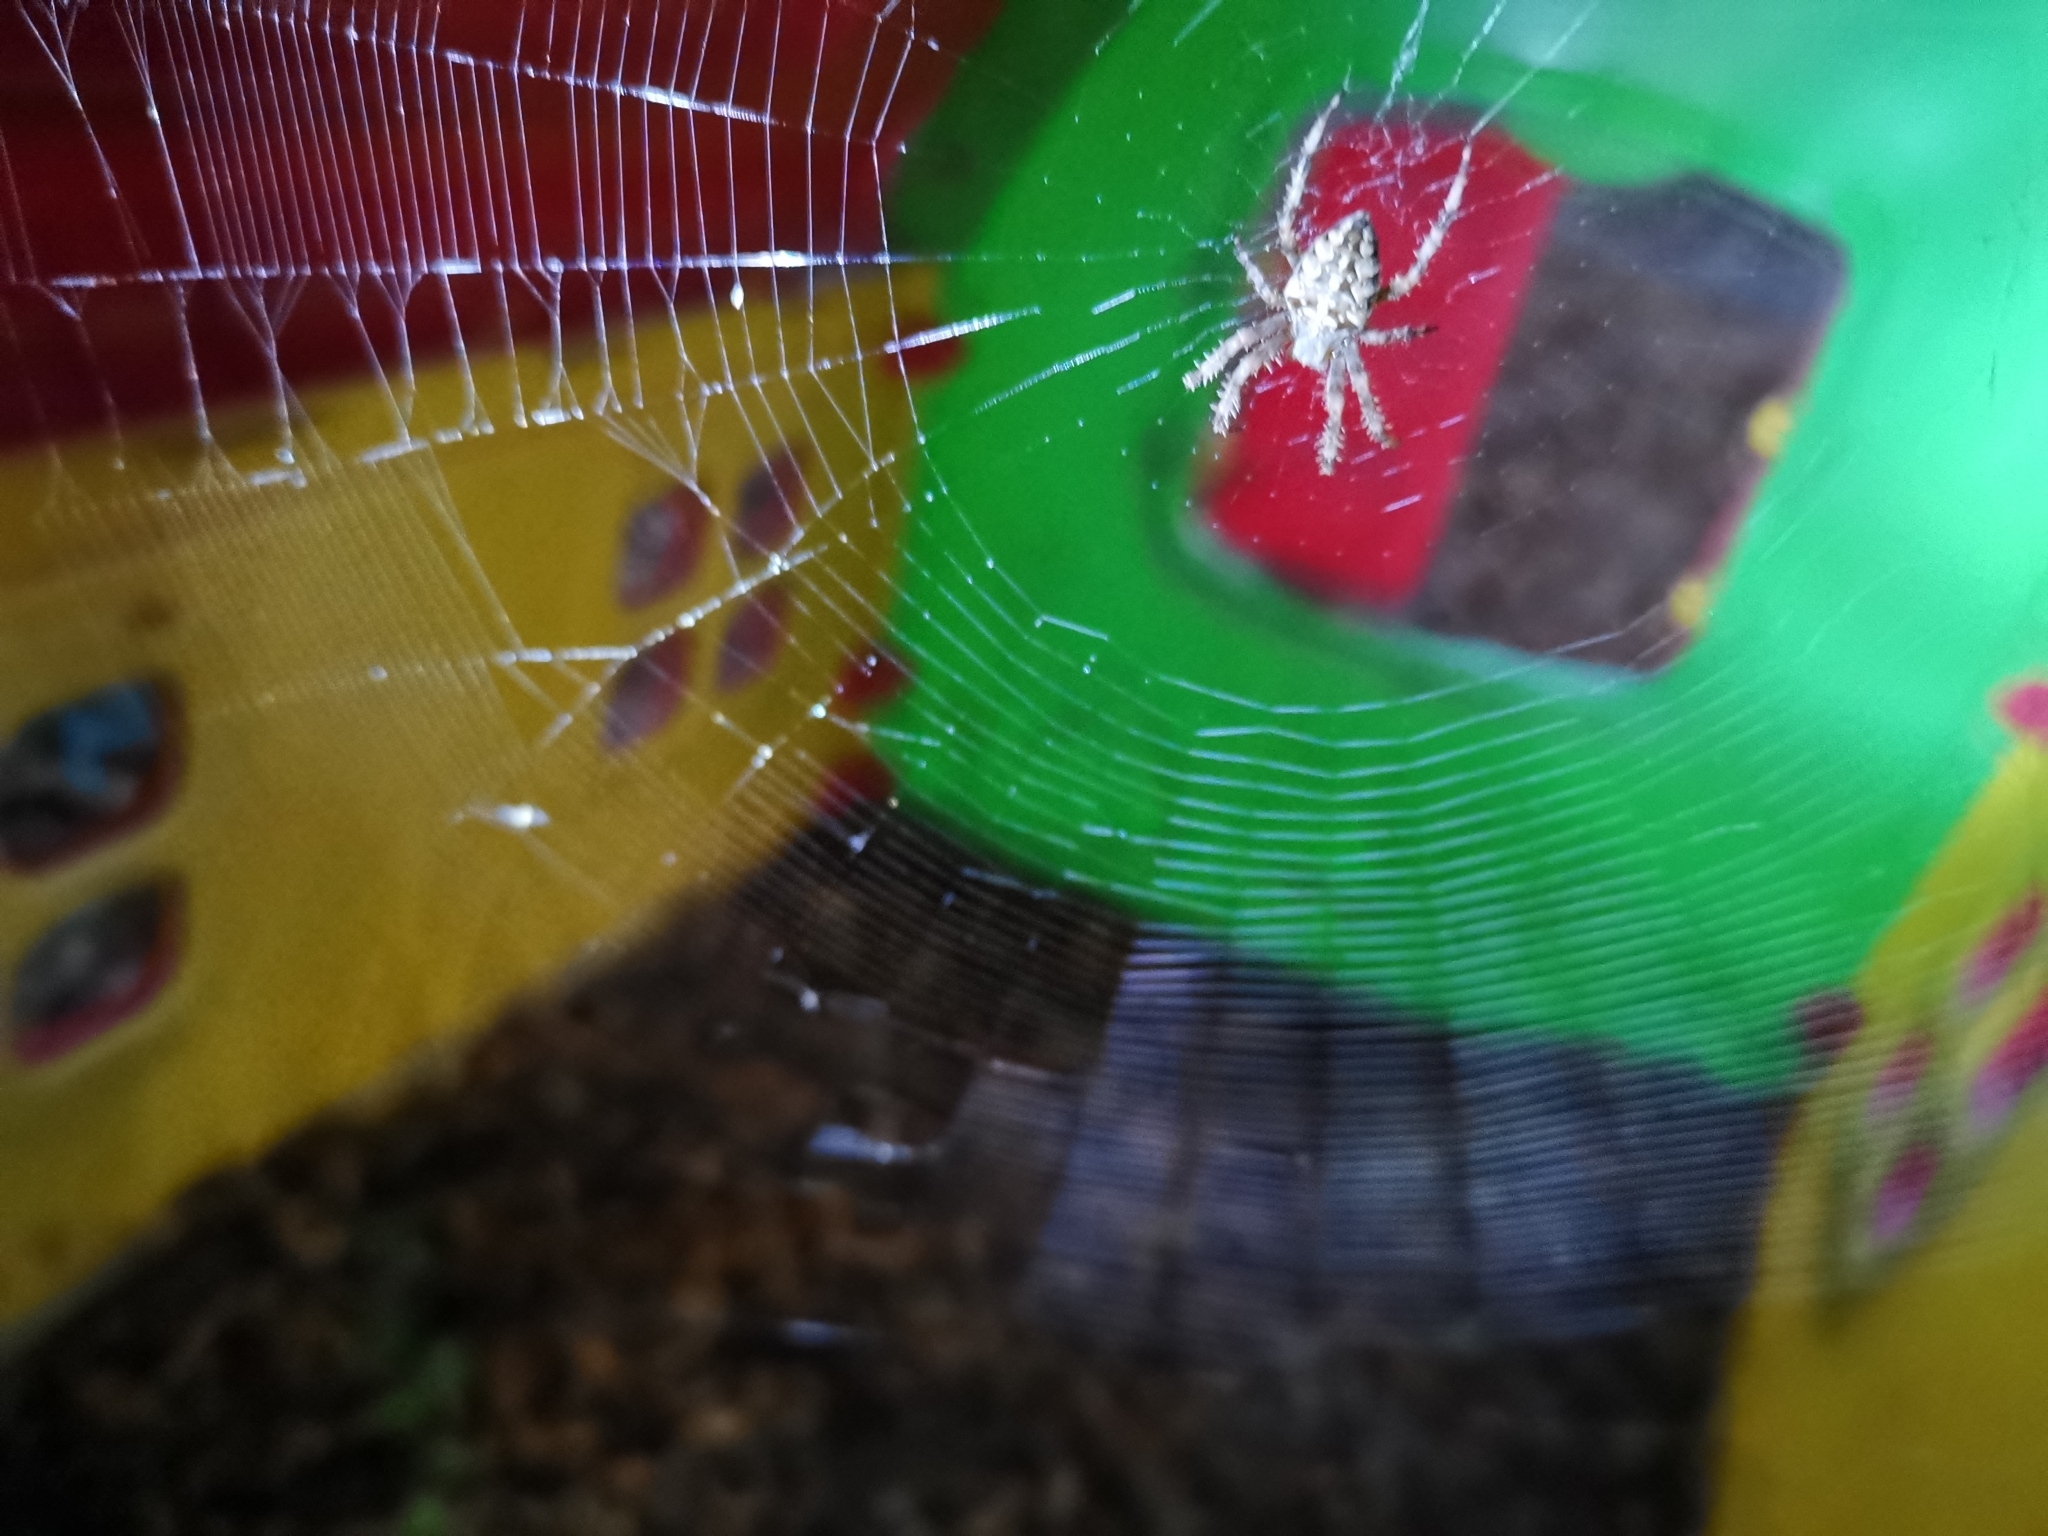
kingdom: Animalia
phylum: Arthropoda
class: Arachnida
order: Araneae
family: Araneidae
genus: Araneus
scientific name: Araneus diadematus
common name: Cross orbweaver
